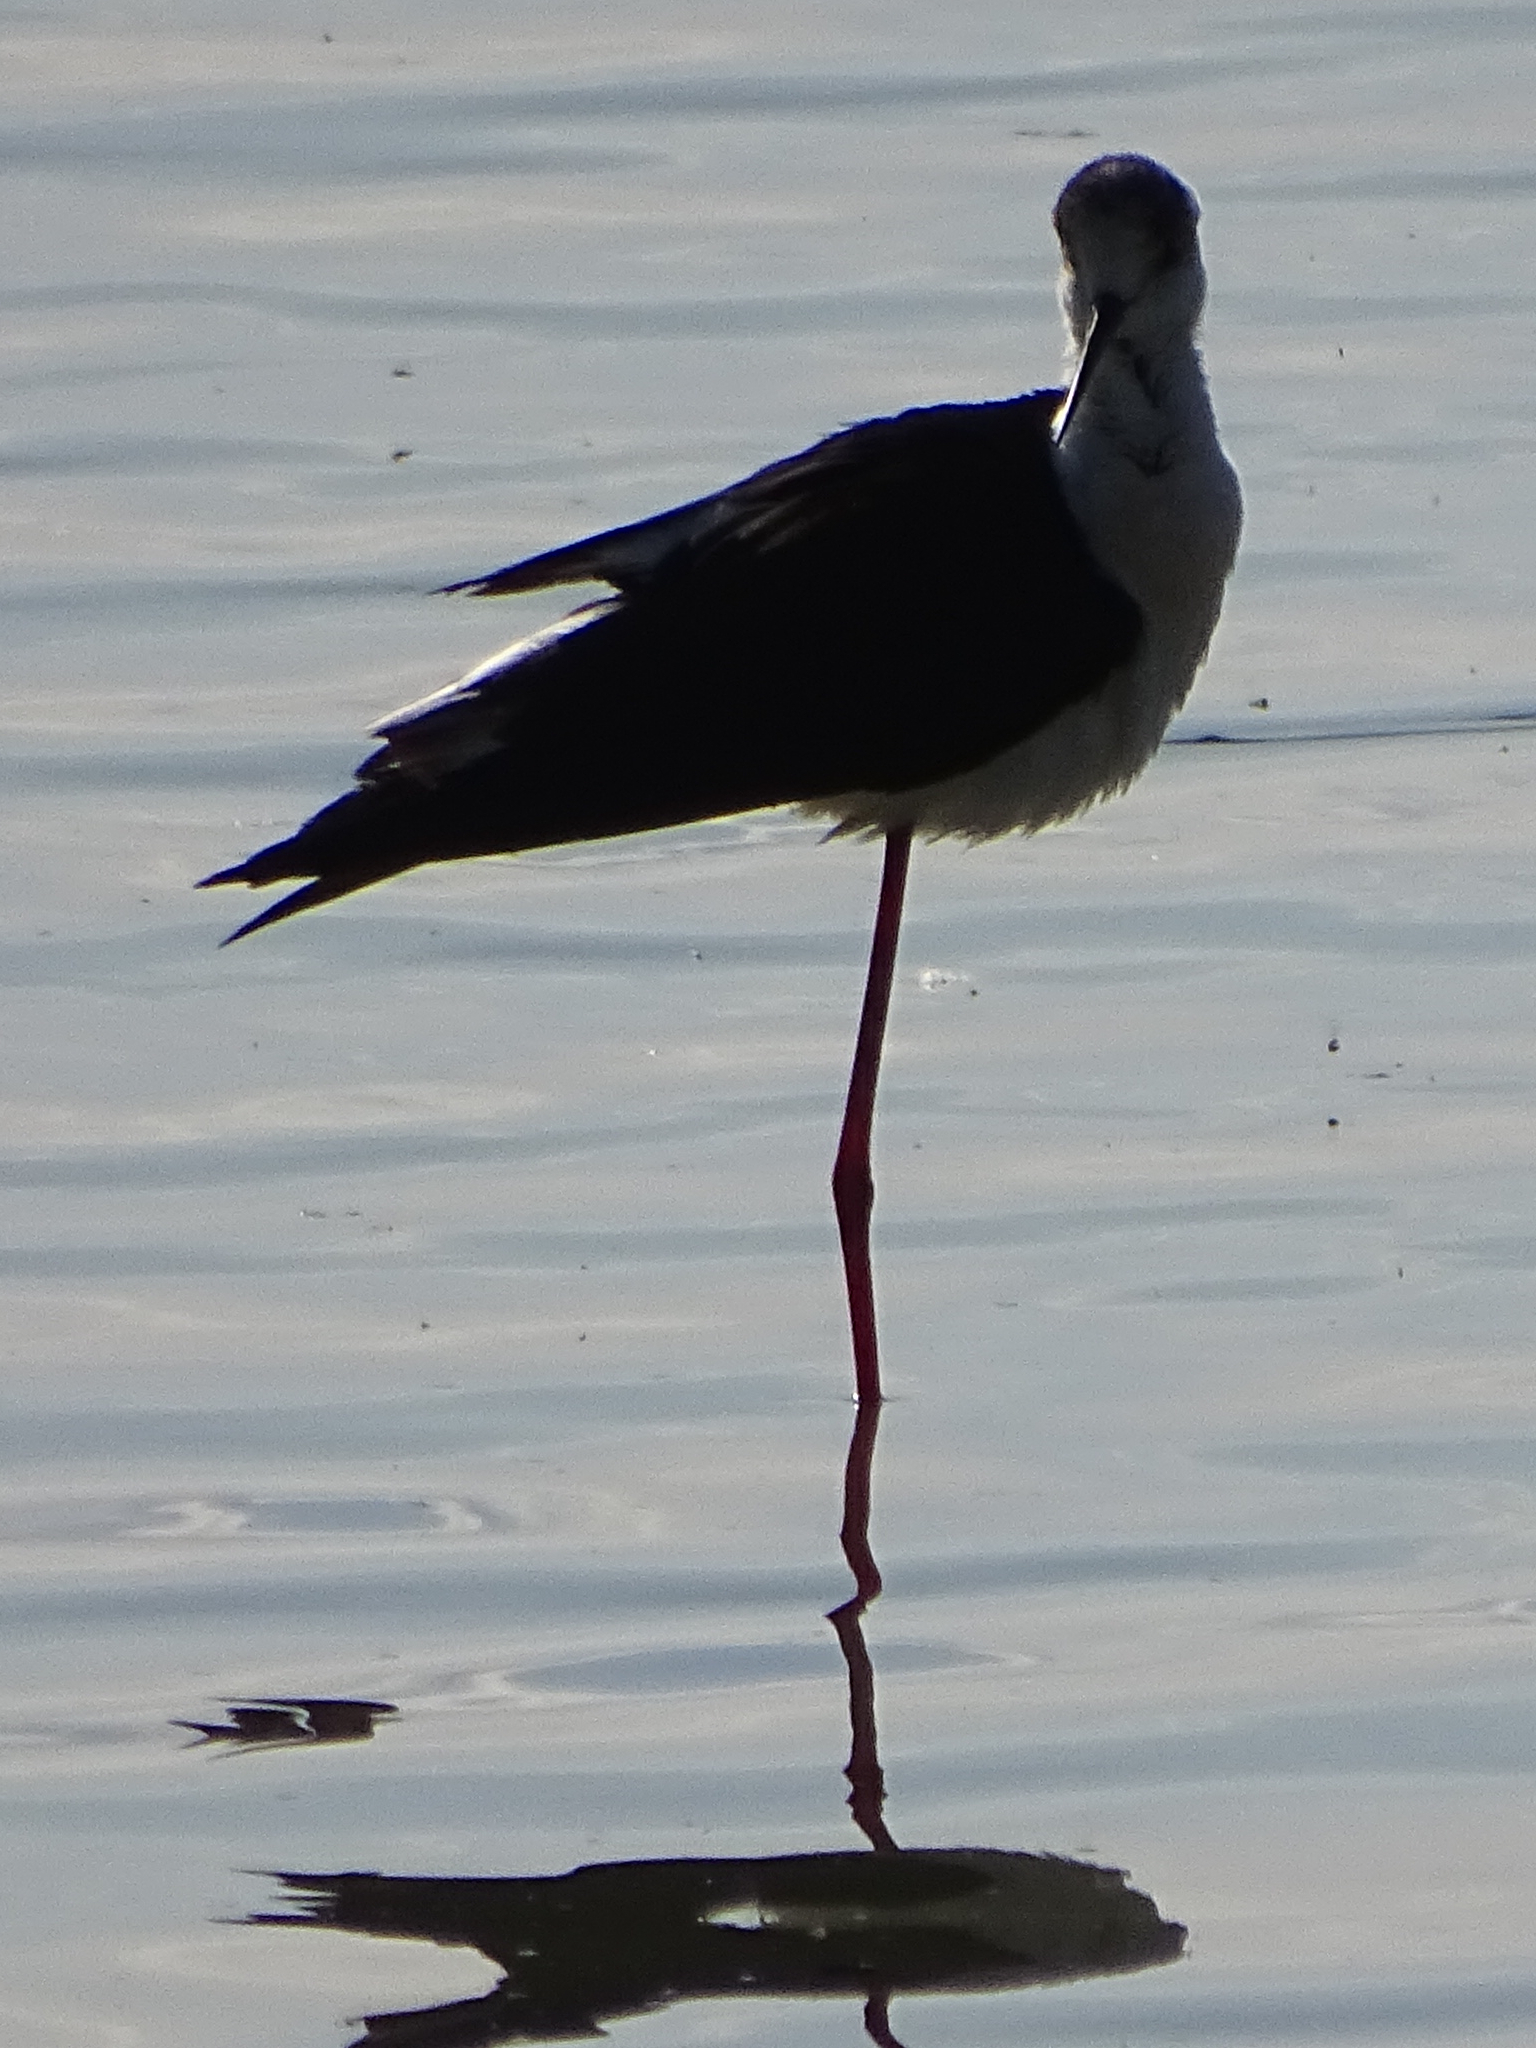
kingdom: Animalia
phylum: Chordata
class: Aves
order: Charadriiformes
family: Recurvirostridae
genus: Himantopus
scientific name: Himantopus himantopus
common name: Black-winged stilt
